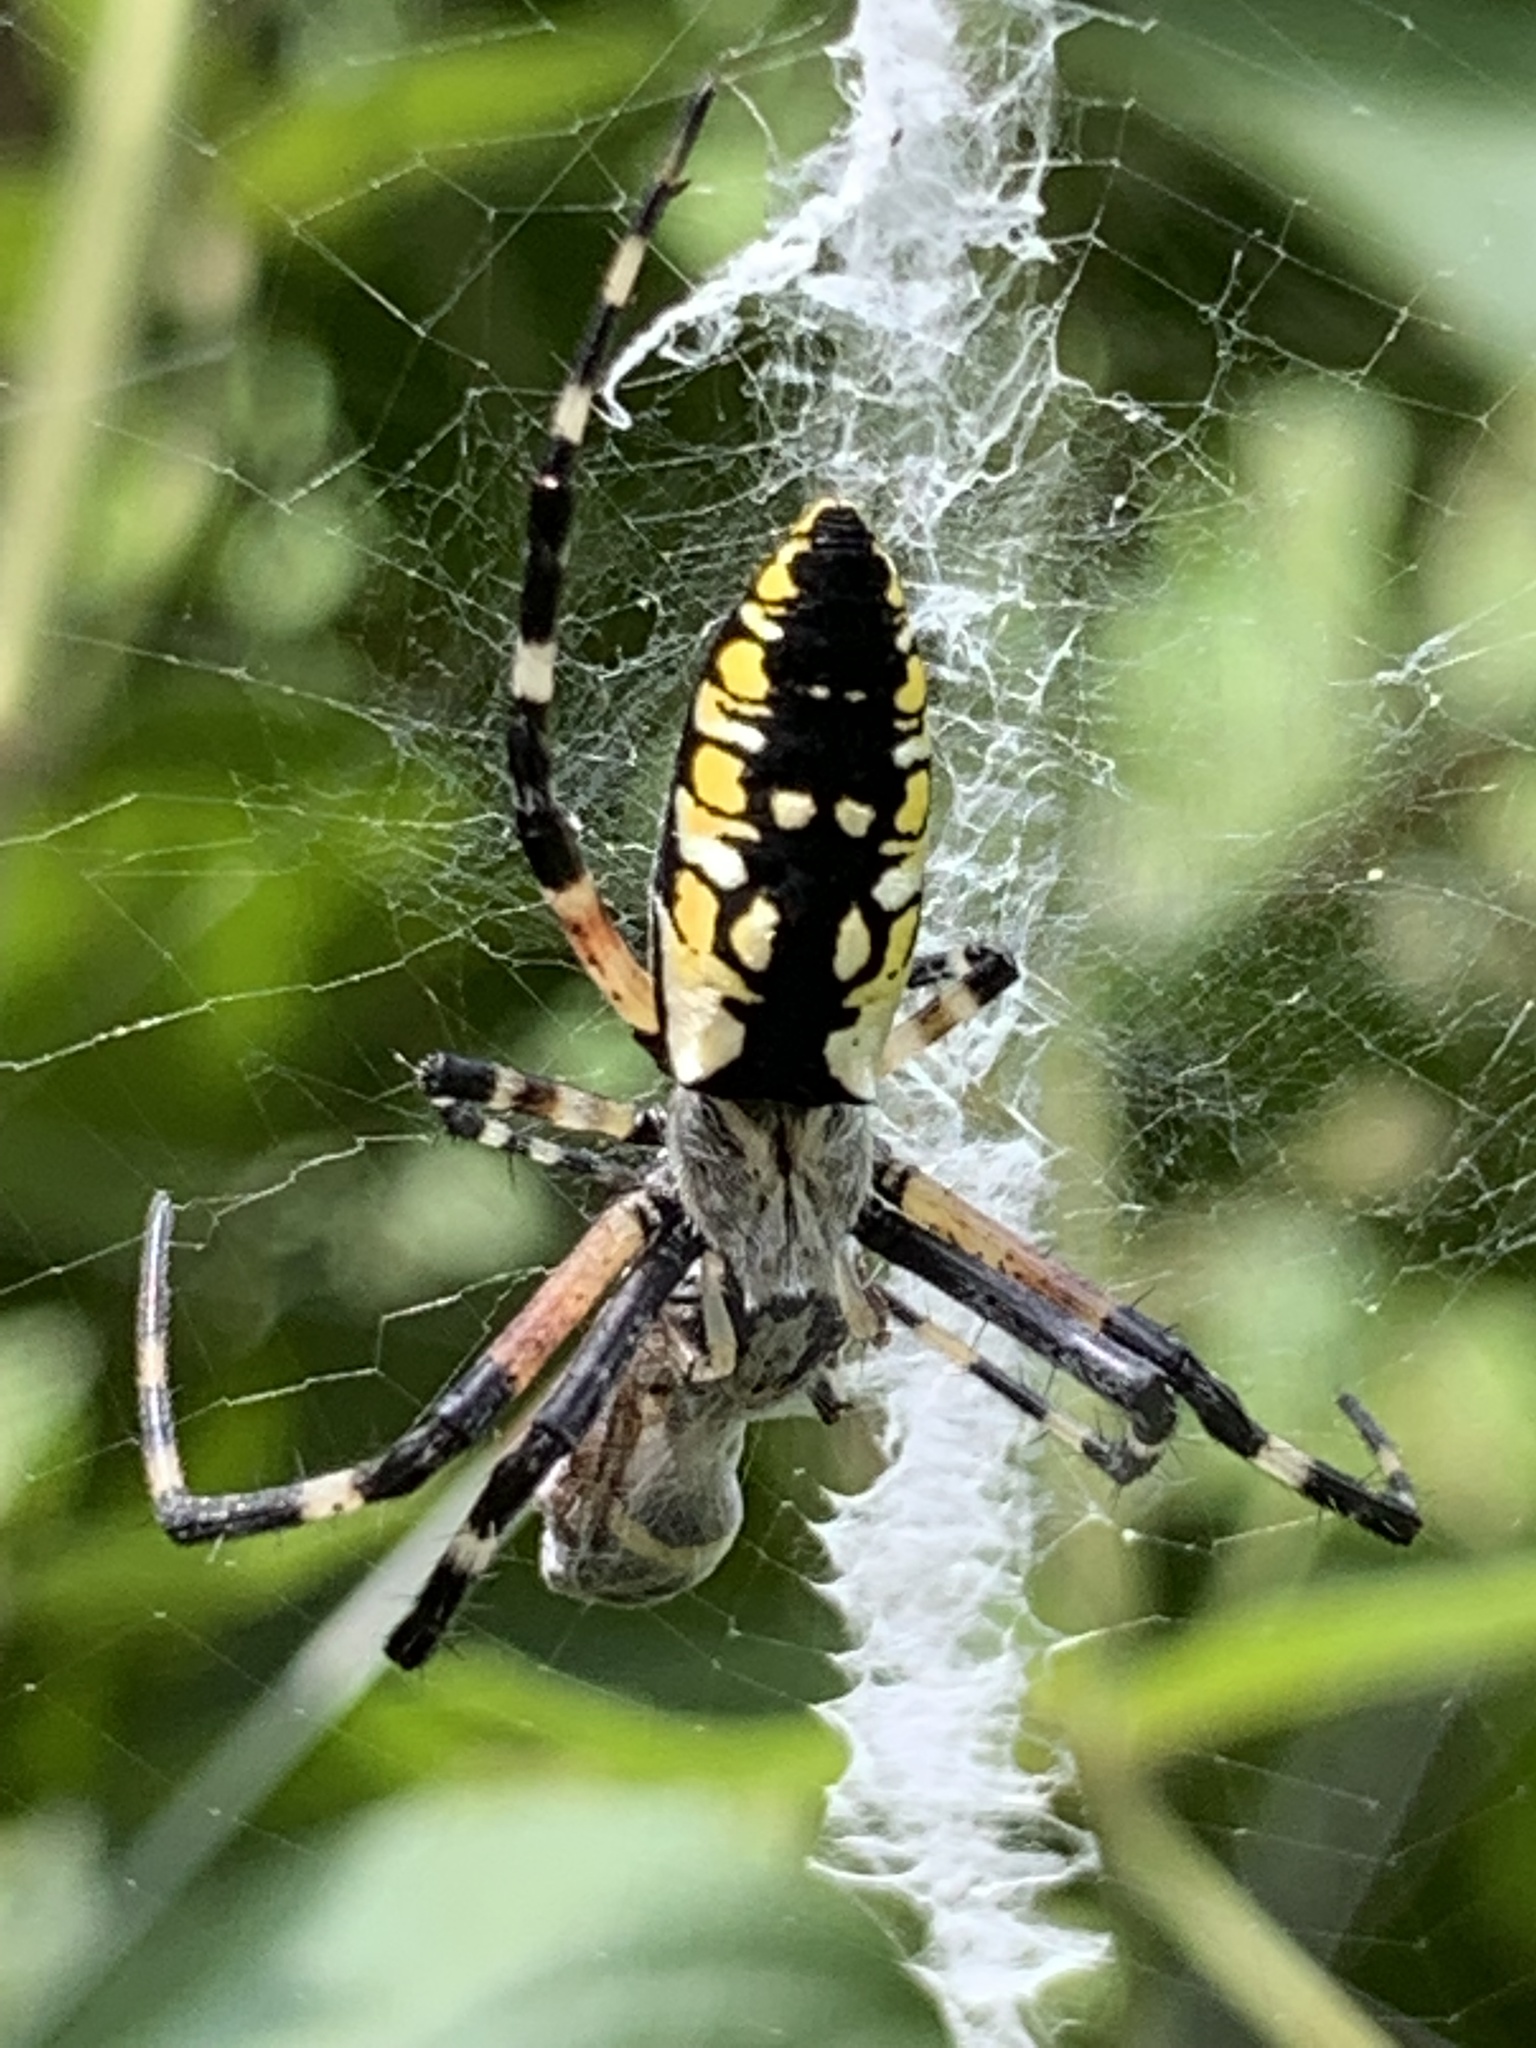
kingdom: Animalia
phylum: Arthropoda
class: Arachnida
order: Araneae
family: Araneidae
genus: Argiope
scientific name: Argiope aurantia
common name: Orb weavers
